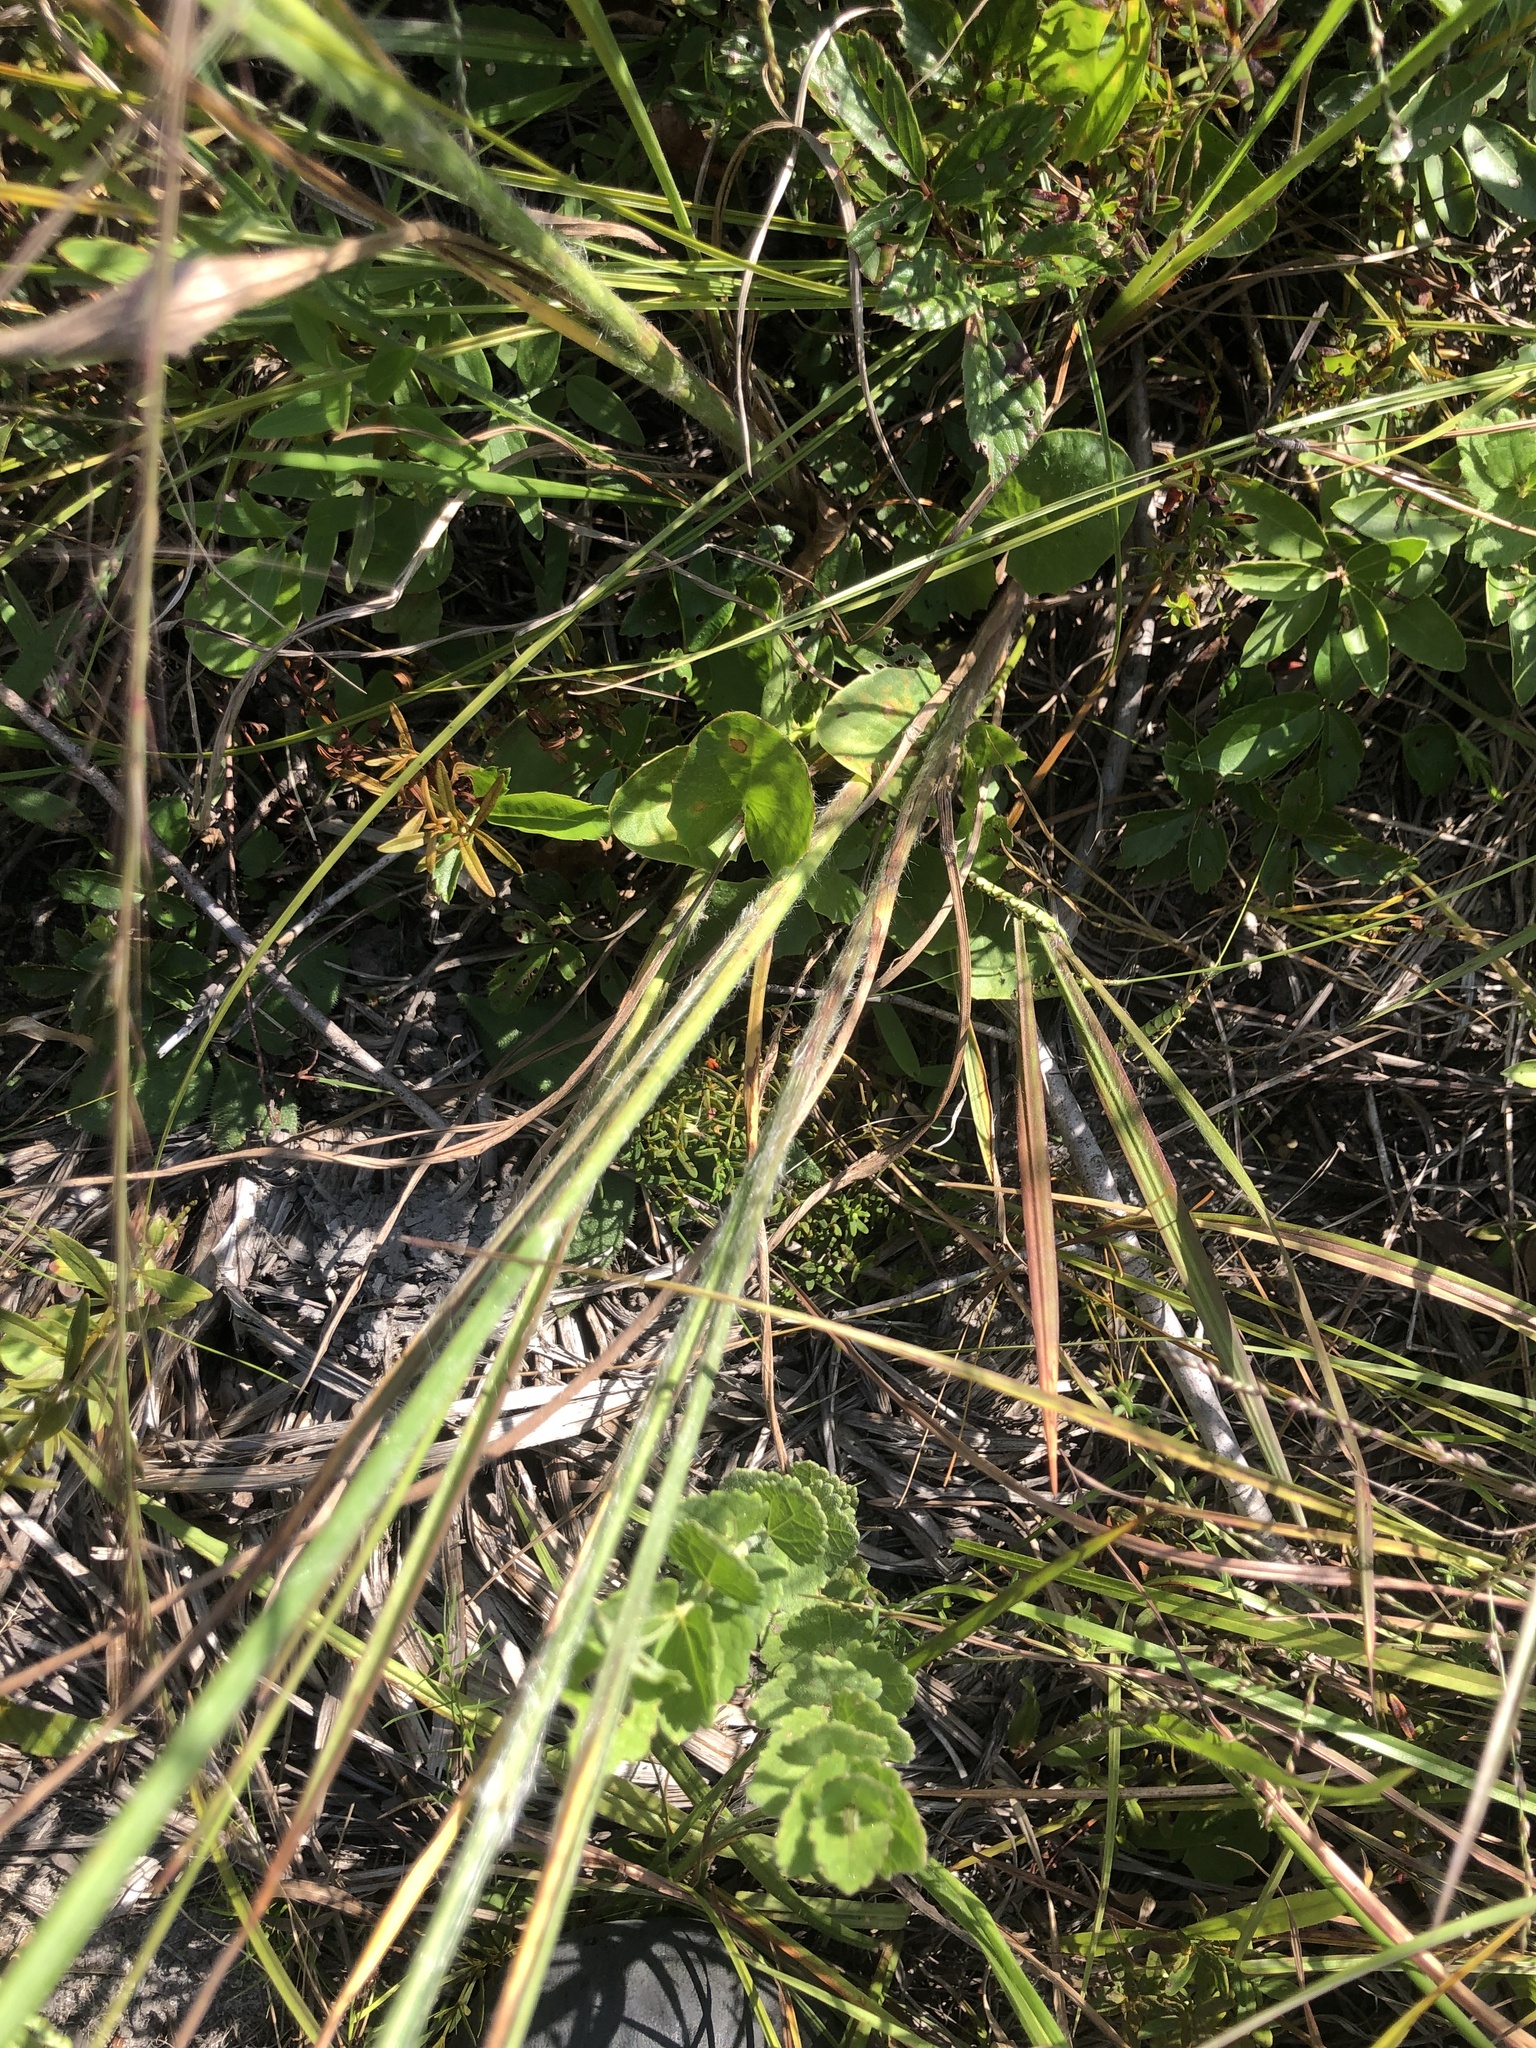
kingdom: Plantae
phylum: Tracheophyta
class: Liliopsida
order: Poales
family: Poaceae
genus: Paspalum
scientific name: Paspalum praecox
